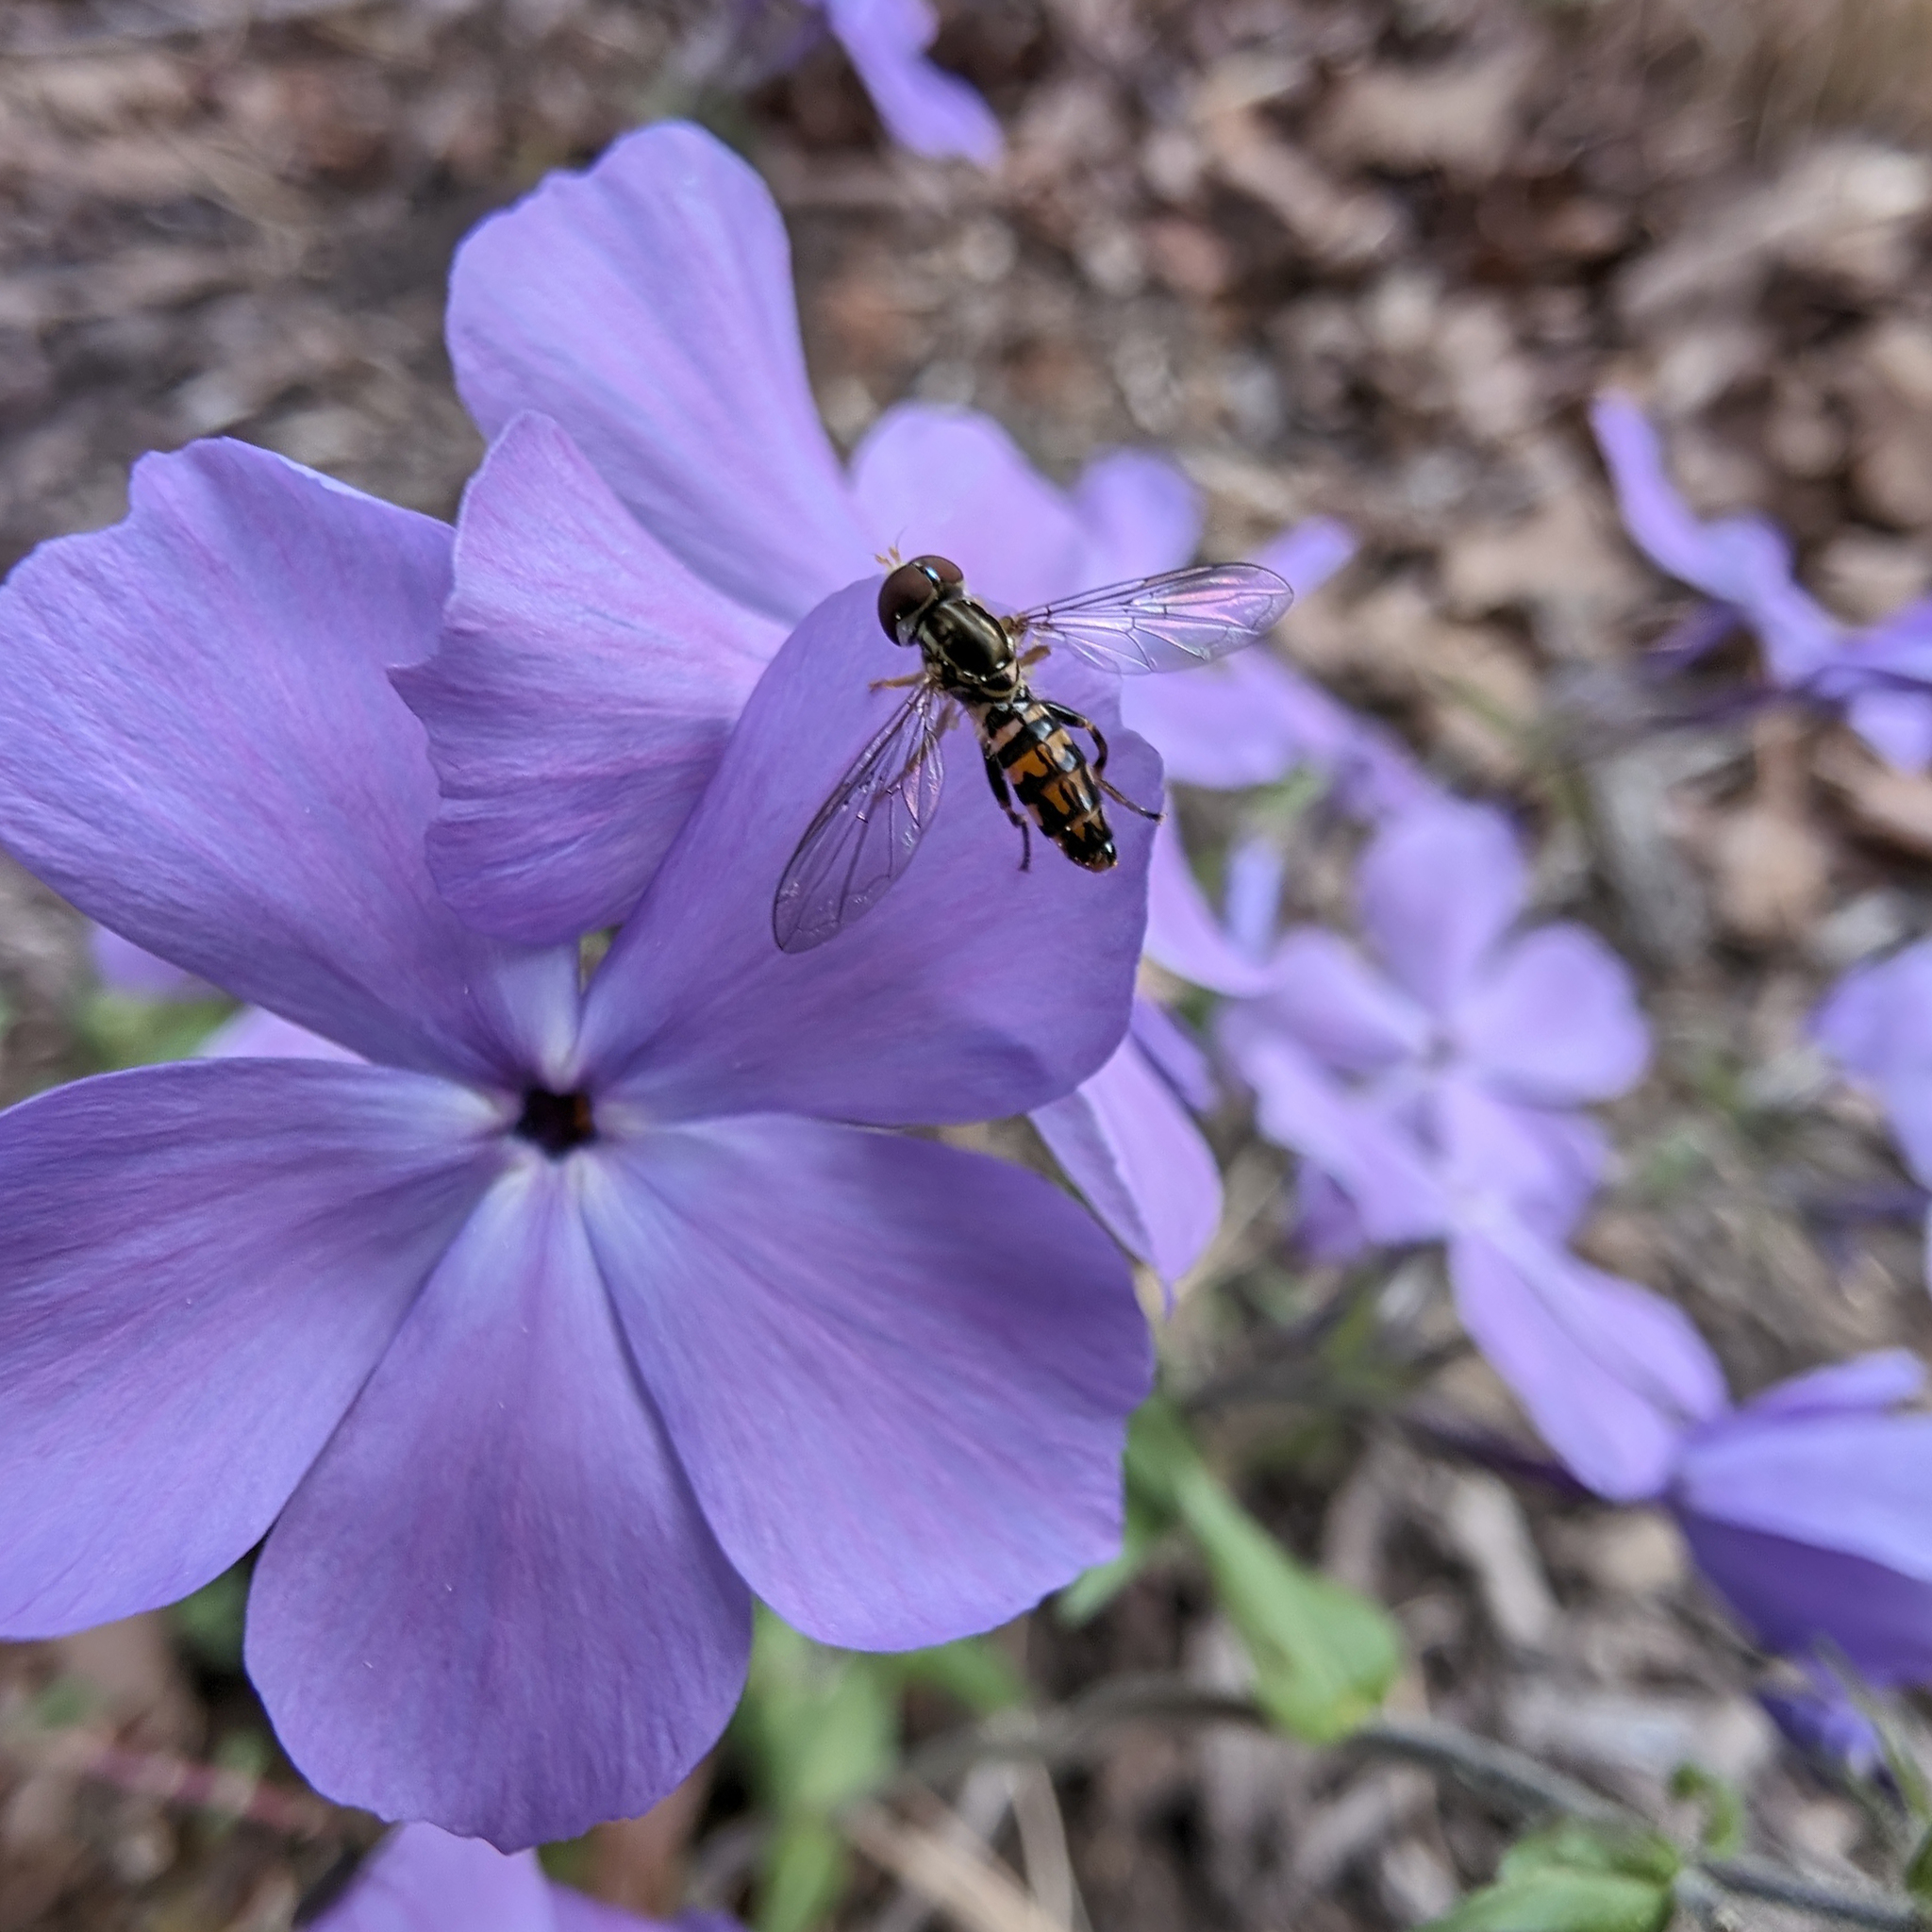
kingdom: Animalia
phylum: Arthropoda
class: Insecta
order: Diptera
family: Syrphidae
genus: Toxomerus
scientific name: Toxomerus geminatus
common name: Eastern calligrapher
